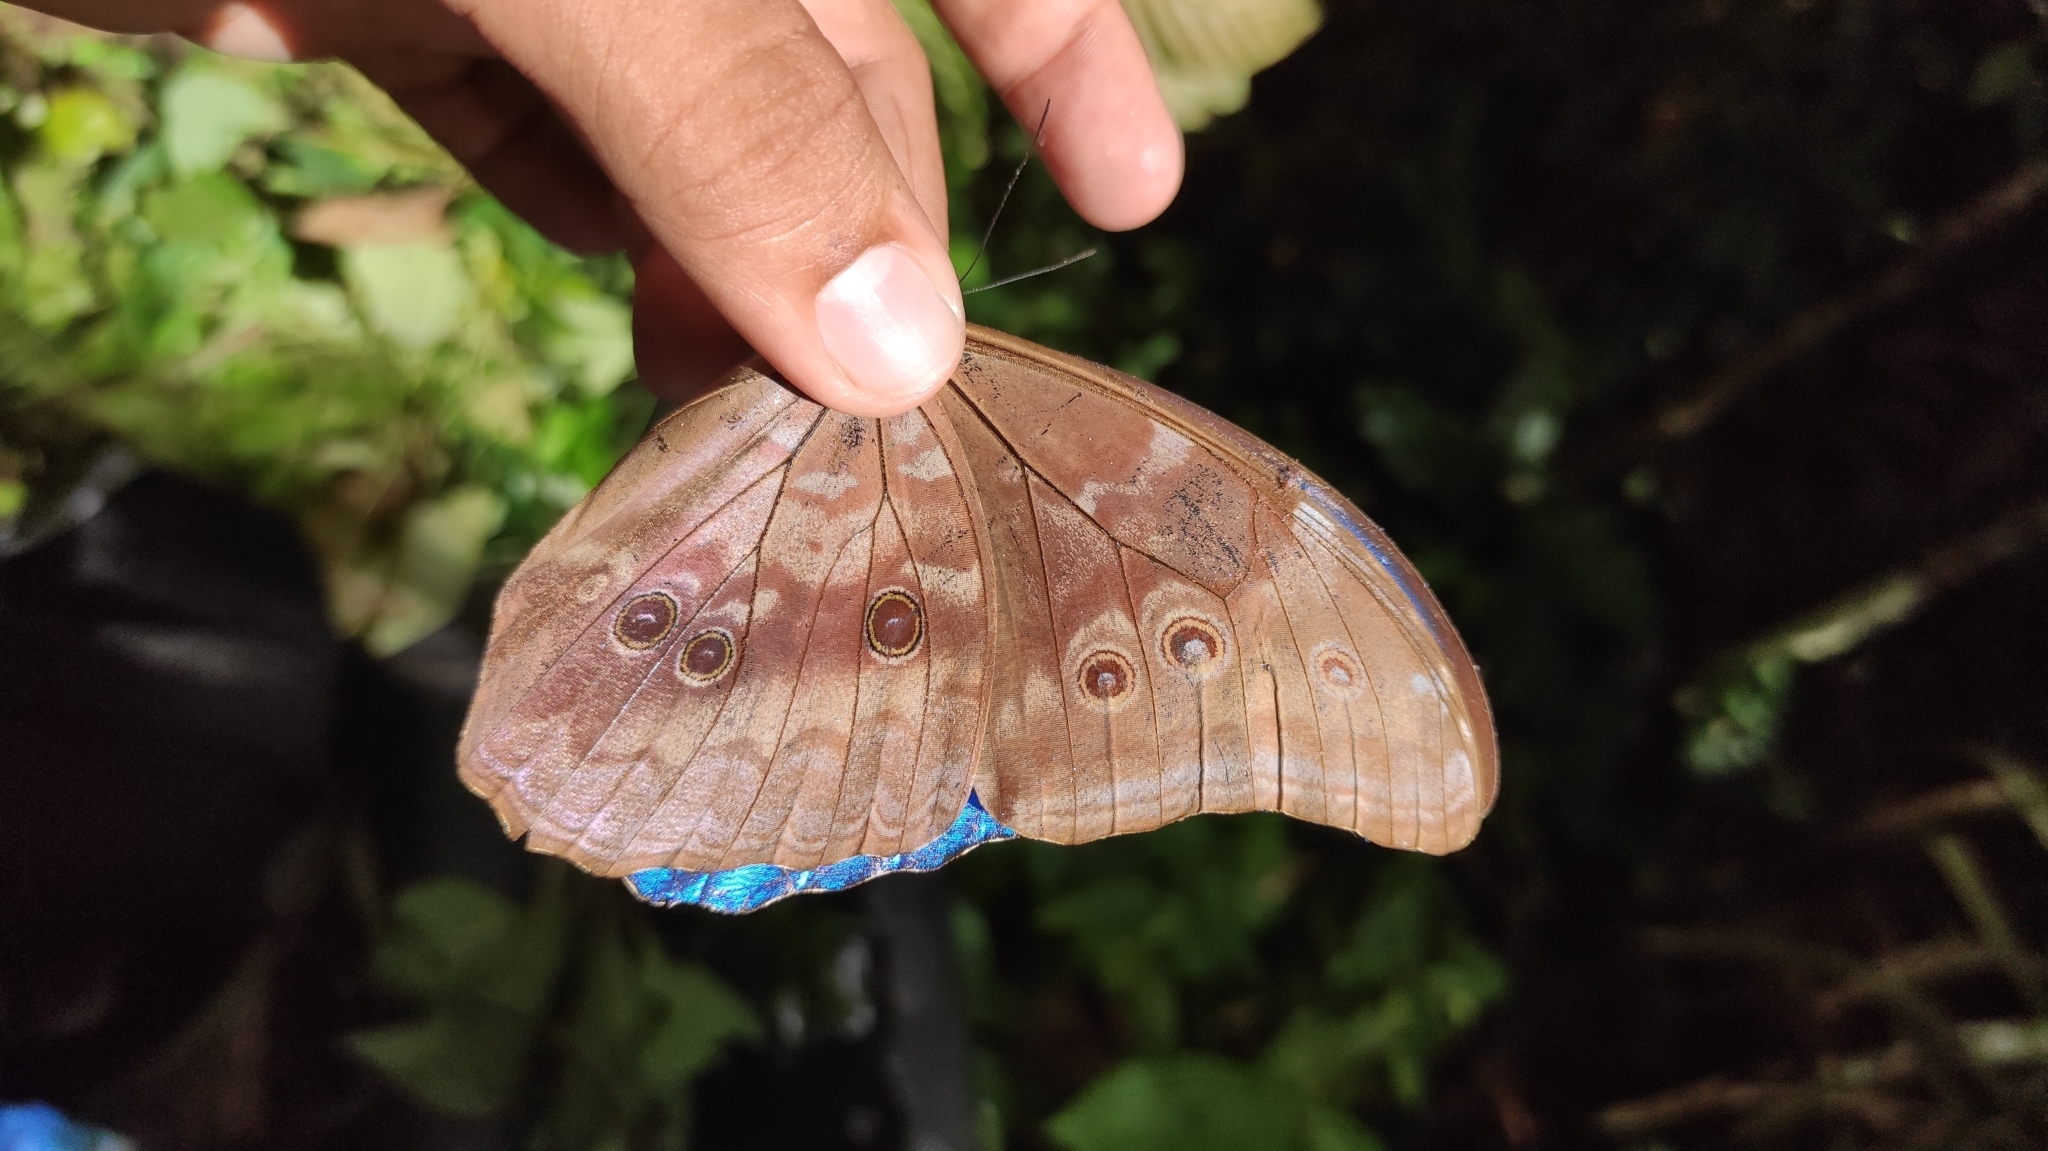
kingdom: Animalia
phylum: Arthropoda
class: Insecta
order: Lepidoptera
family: Nymphalidae
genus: Morpho
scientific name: Morpho amathonte
